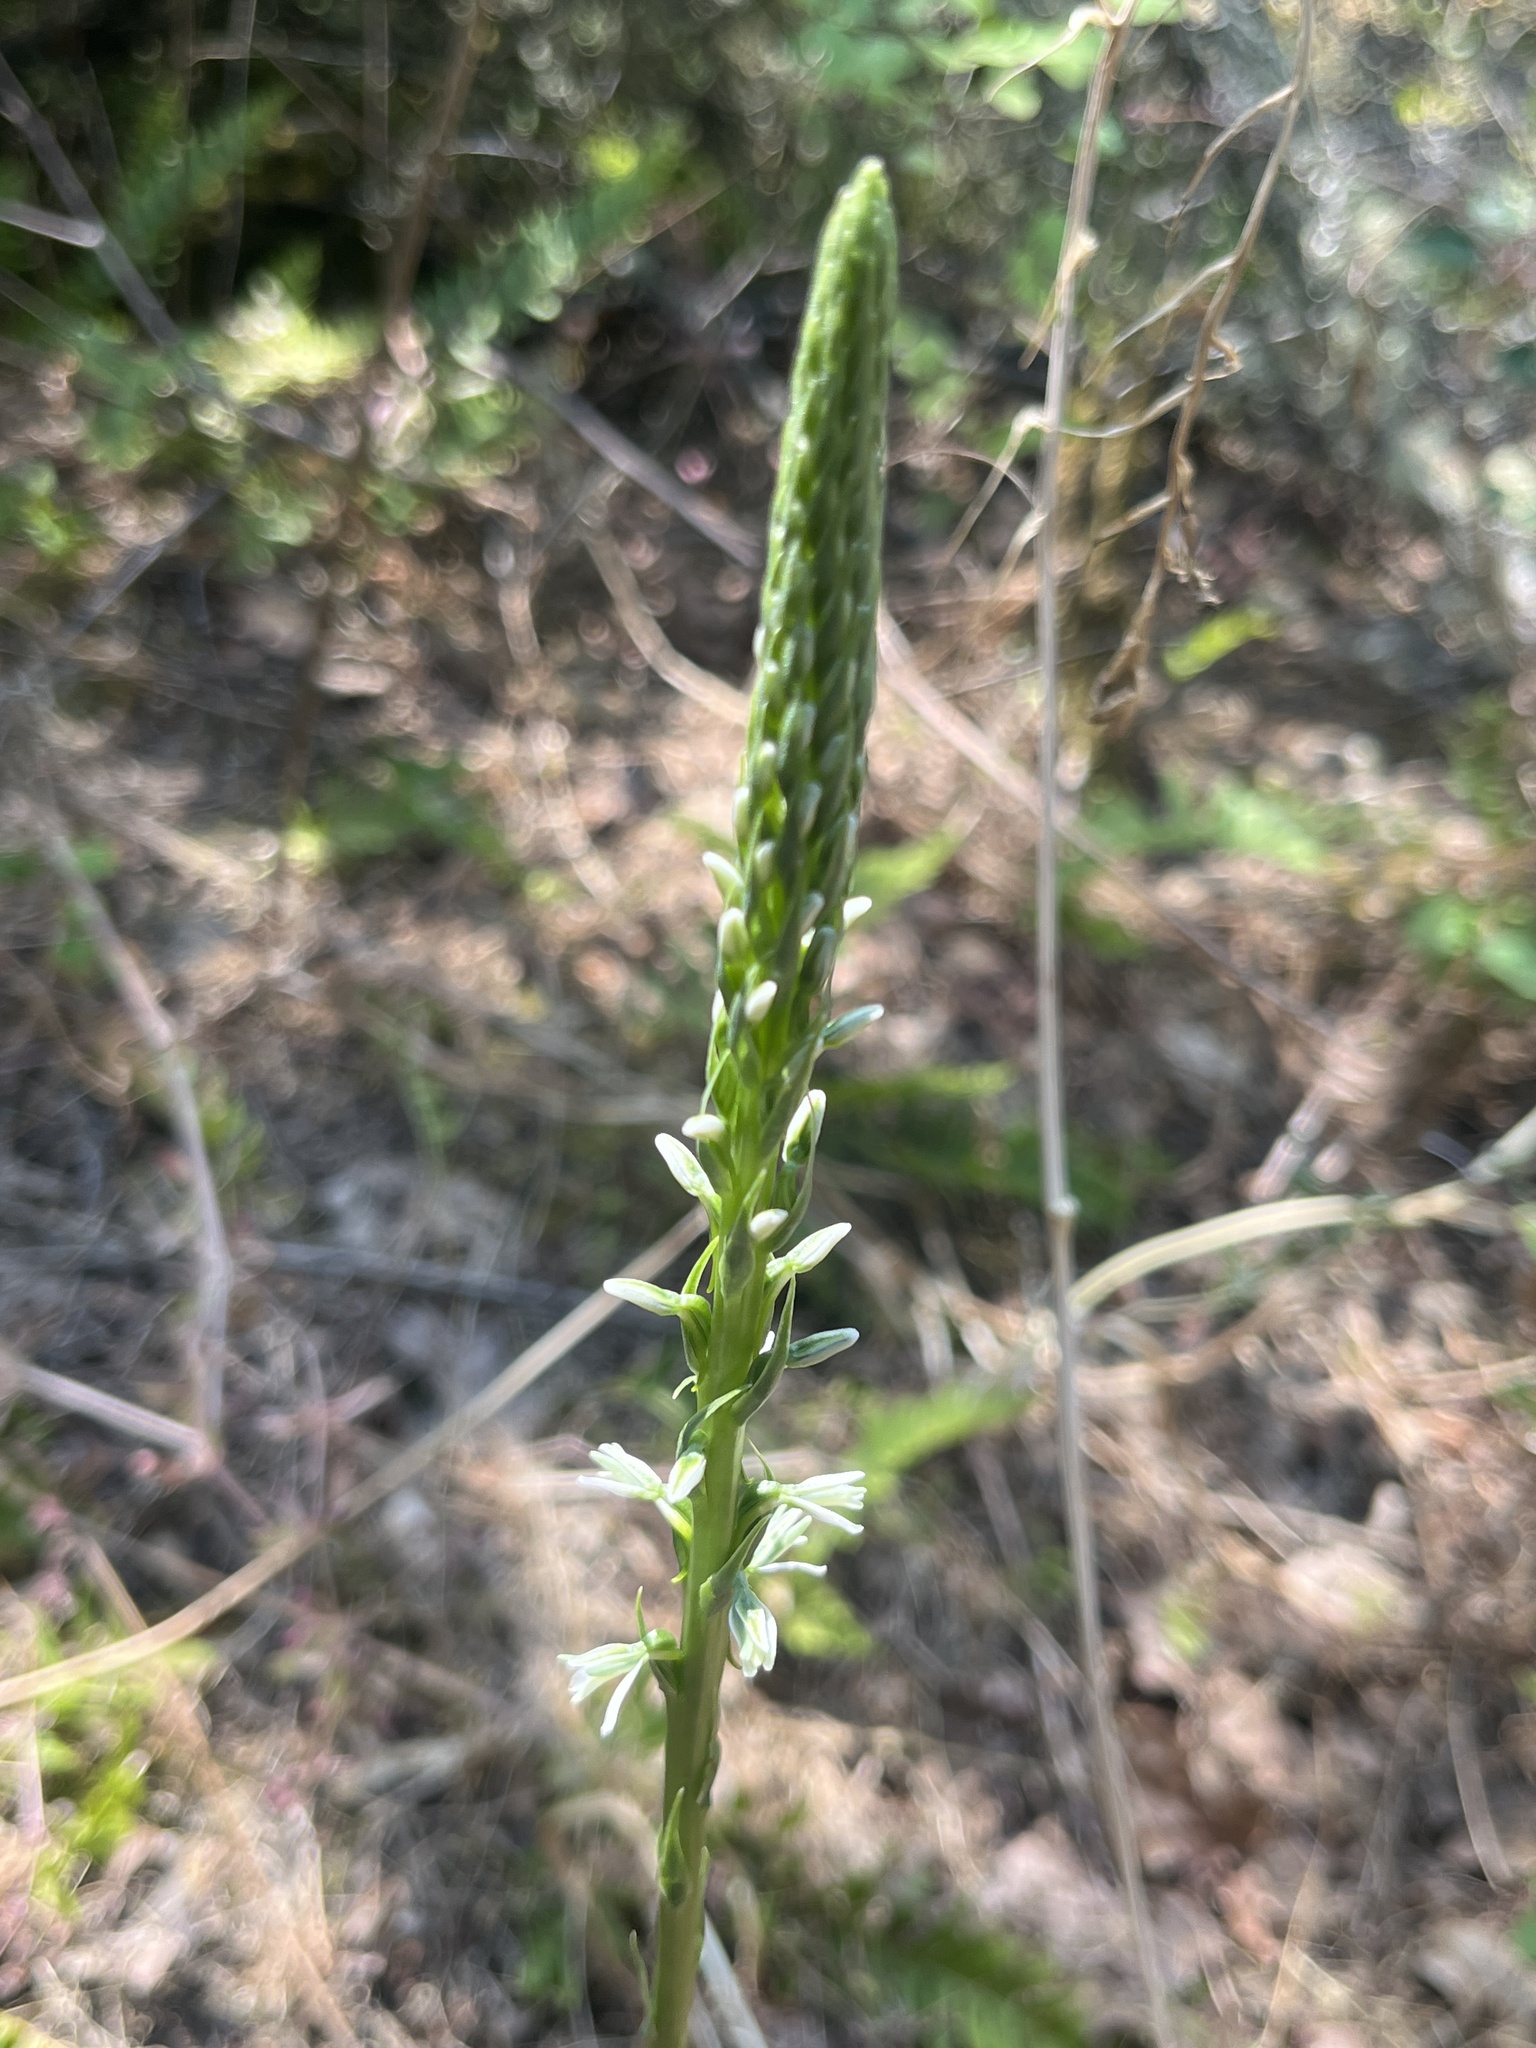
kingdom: Plantae
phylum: Tracheophyta
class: Liliopsida
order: Asparagales
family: Orchidaceae
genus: Platanthera
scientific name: Platanthera elegans
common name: Coast piperia
